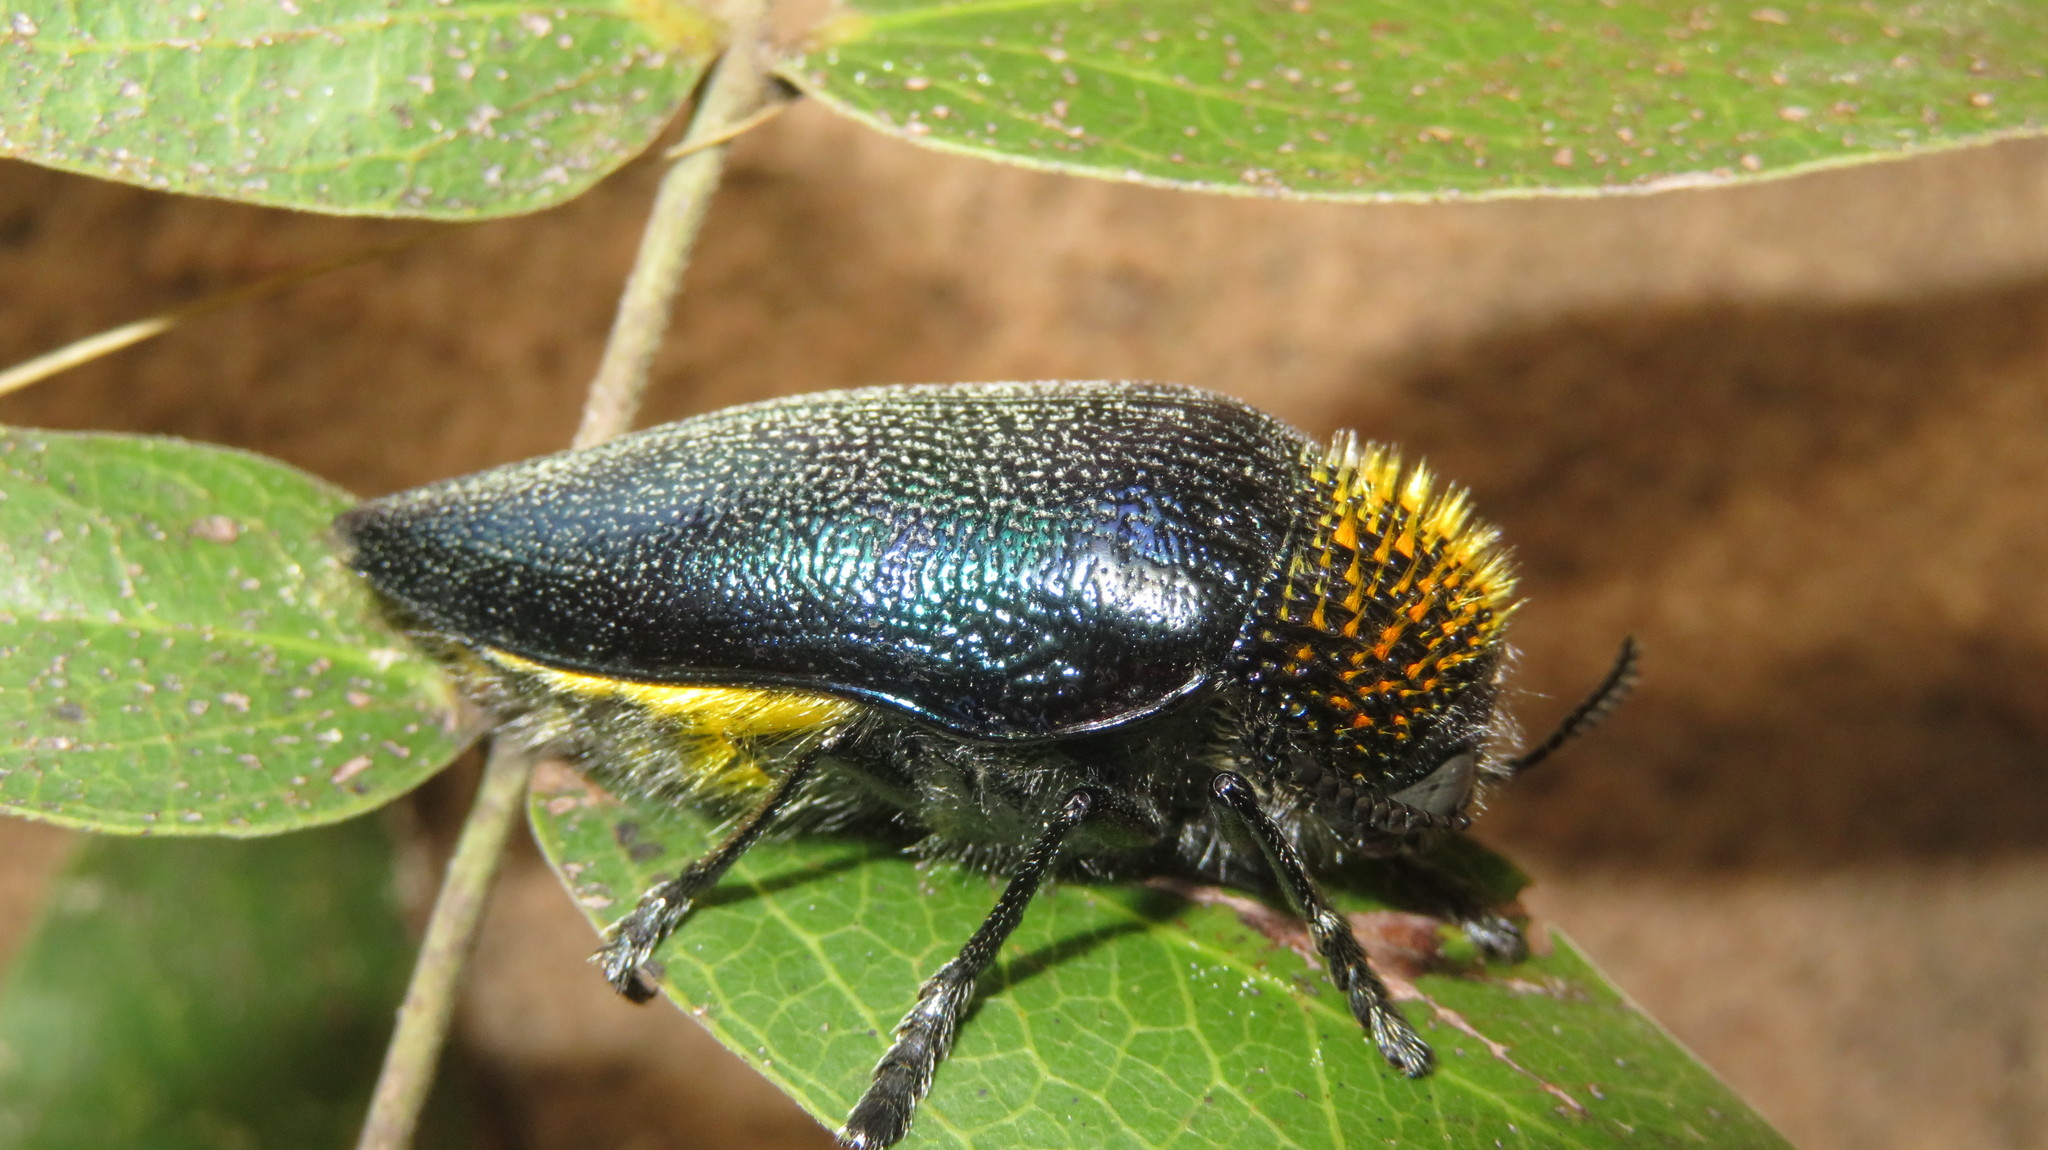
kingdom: Animalia
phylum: Arthropoda
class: Insecta
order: Coleoptera
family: Buprestidae
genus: Sternocera
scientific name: Sternocera pulchra
